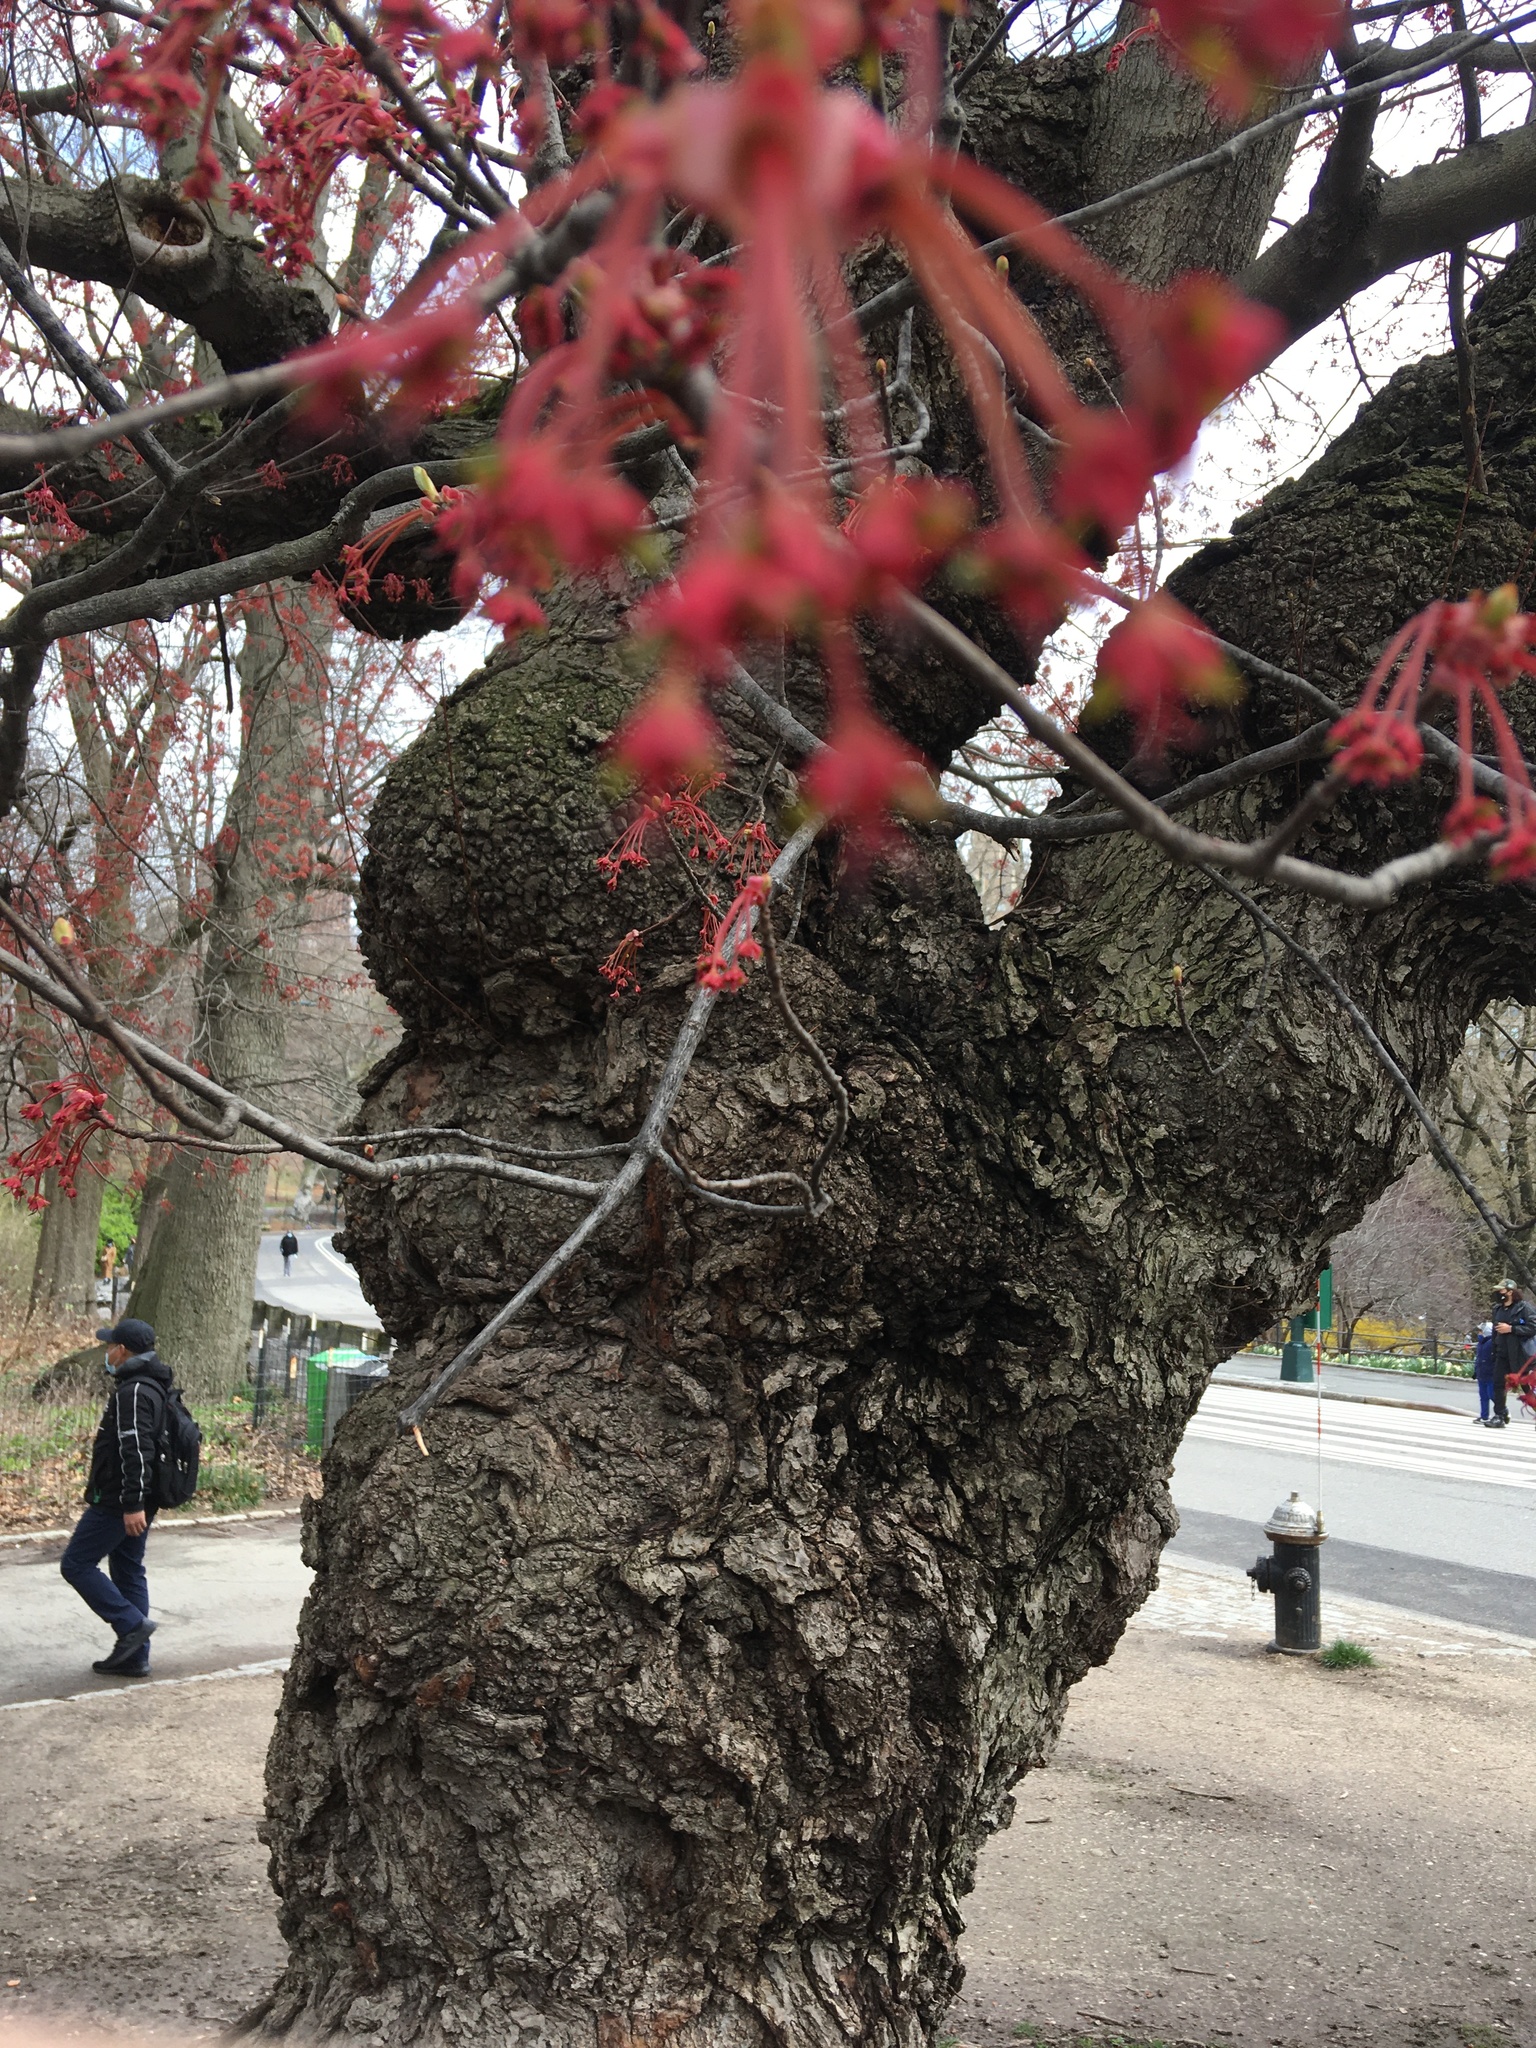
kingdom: Plantae
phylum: Tracheophyta
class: Magnoliopsida
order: Sapindales
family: Sapindaceae
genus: Acer
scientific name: Acer rubrum
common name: Red maple
